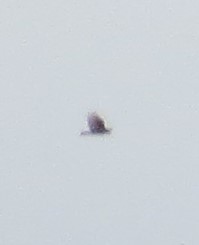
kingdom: Animalia
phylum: Chordata
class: Aves
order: Accipitriformes
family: Cathartidae
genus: Cathartes
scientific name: Cathartes aura
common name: Turkey vulture
